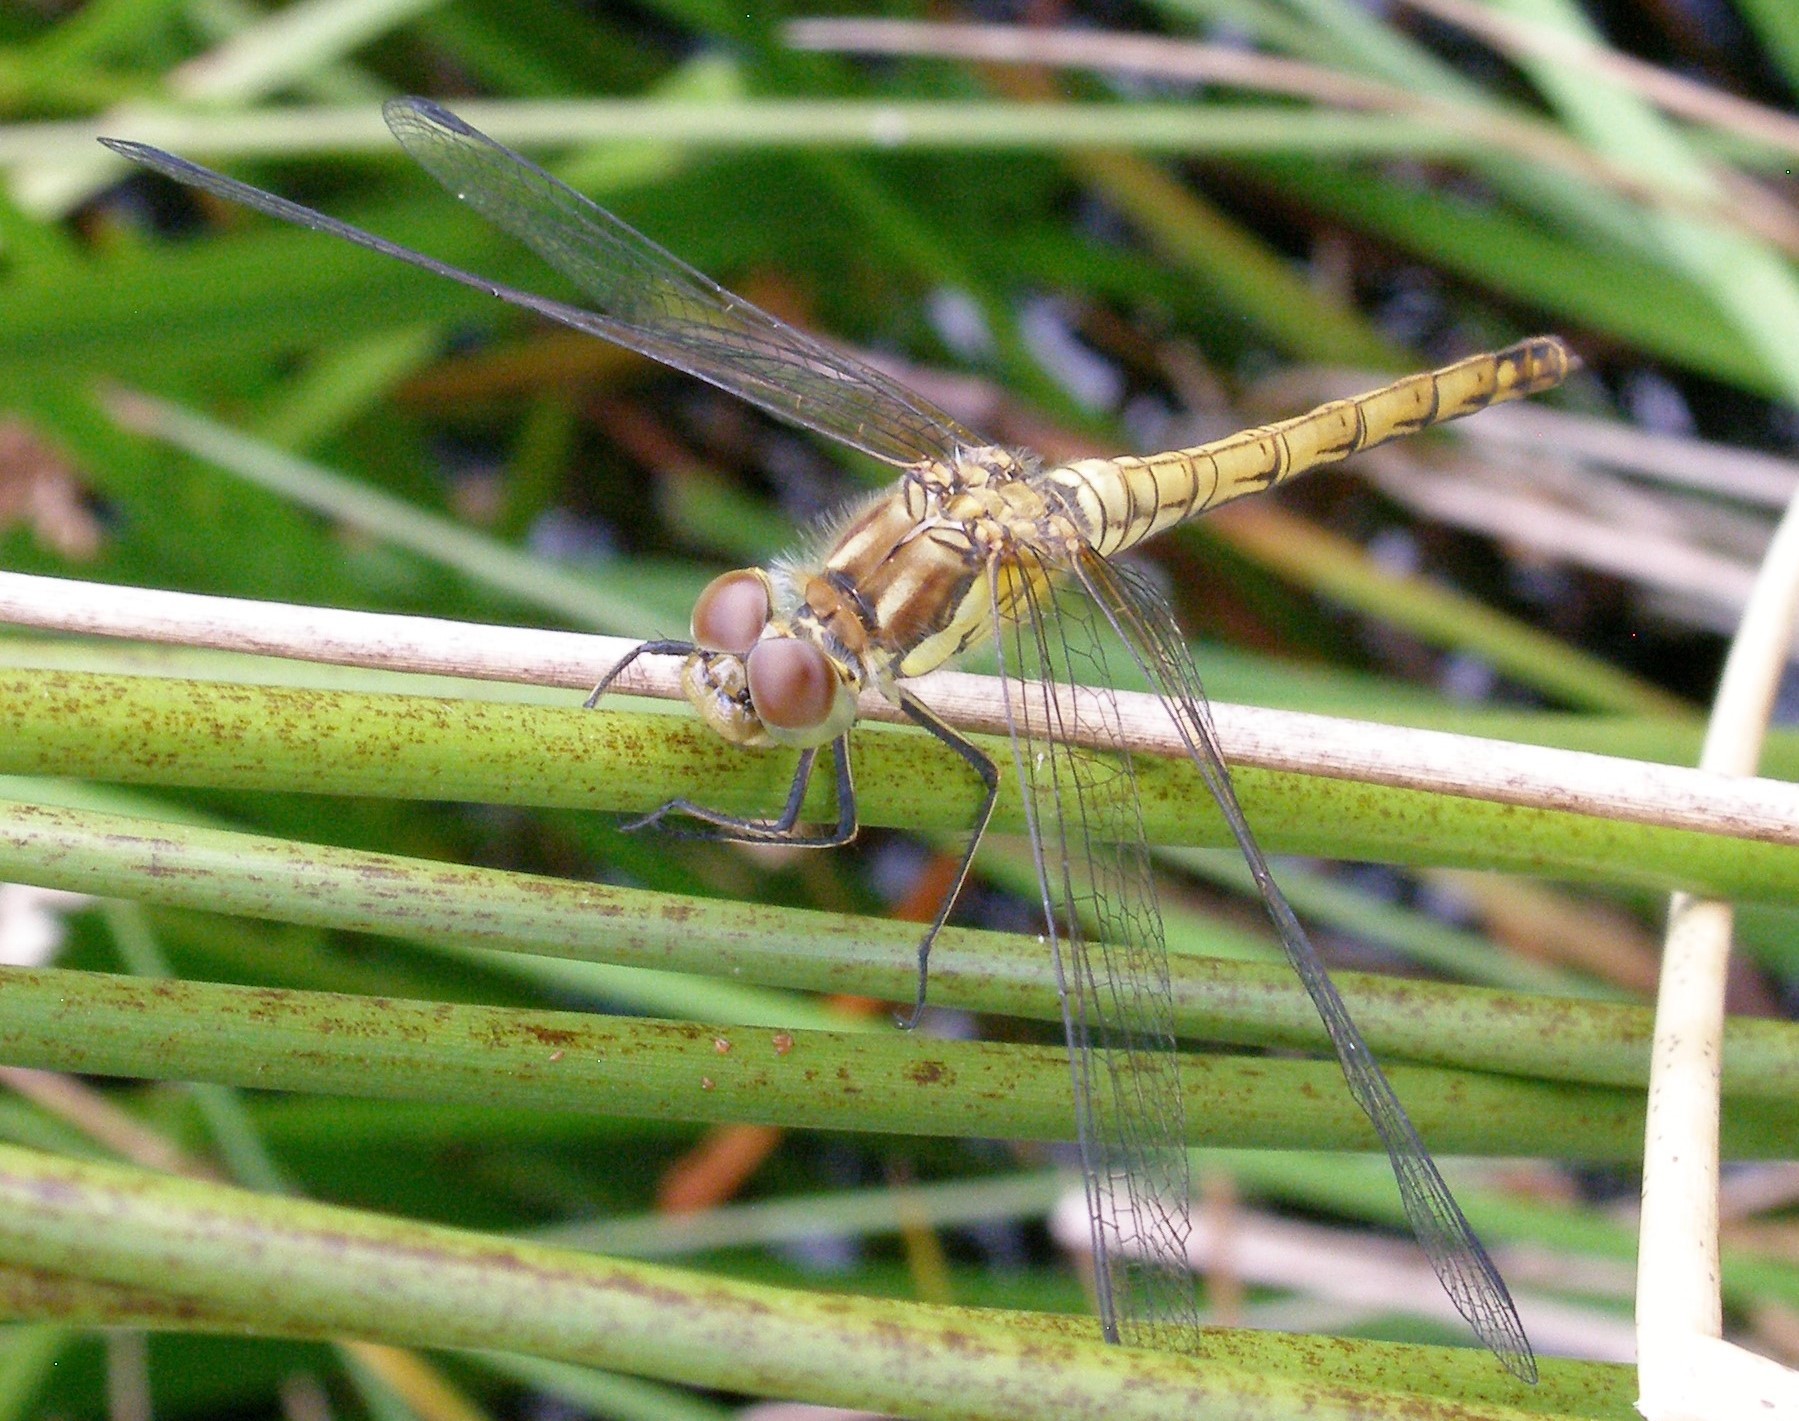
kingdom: Animalia
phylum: Arthropoda
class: Insecta
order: Odonata
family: Libellulidae
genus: Sympetrum
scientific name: Sympetrum striolatum
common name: Common darter
